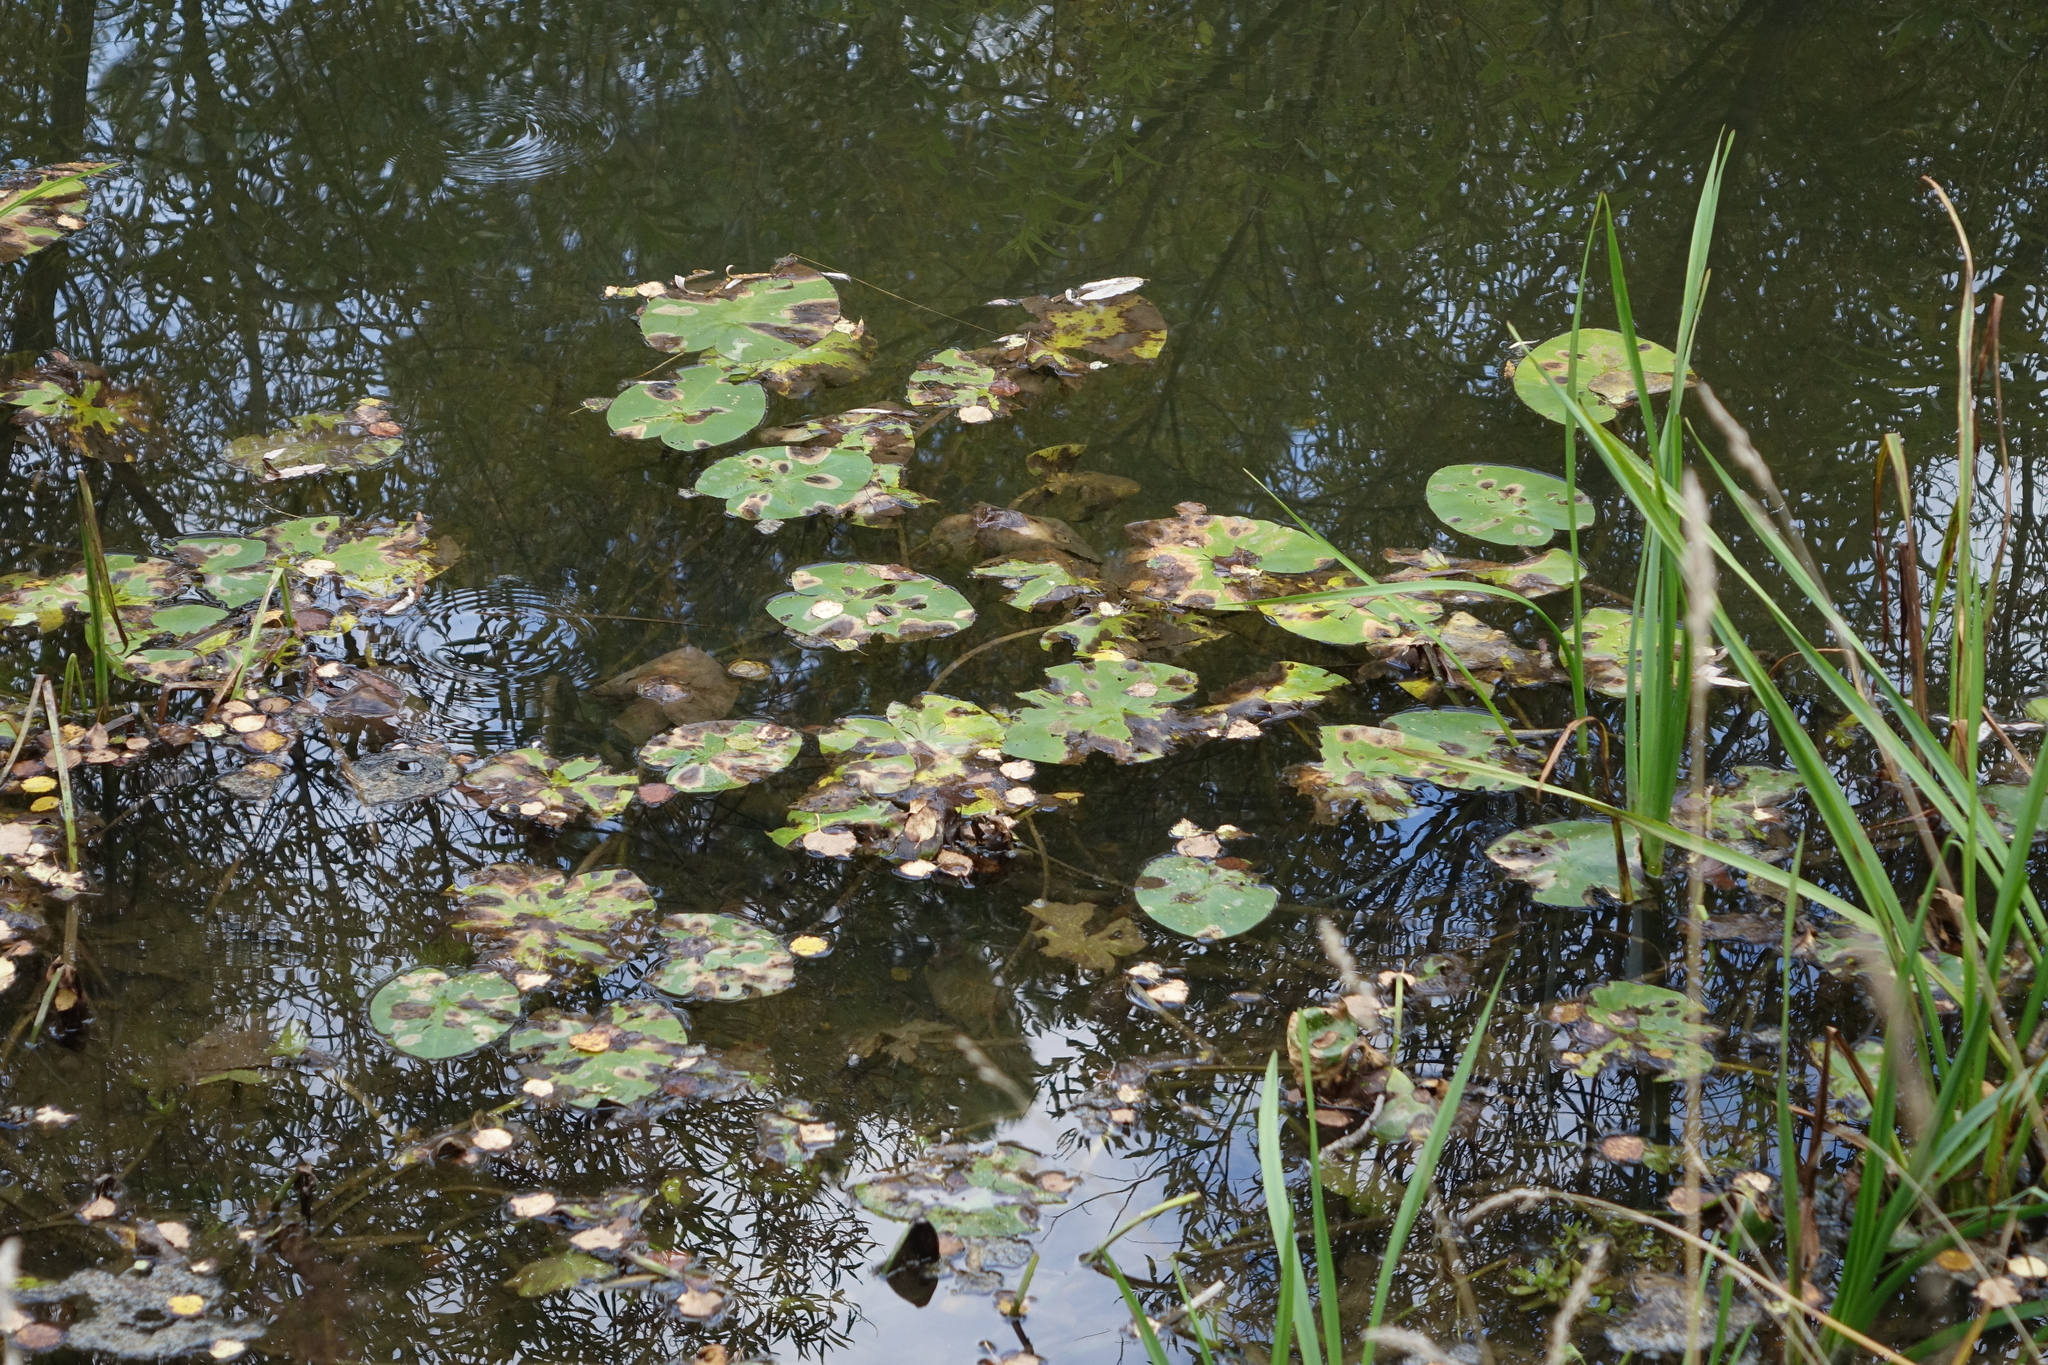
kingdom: Plantae
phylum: Tracheophyta
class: Magnoliopsida
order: Nymphaeales
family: Nymphaeaceae
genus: Nuphar
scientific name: Nuphar lutea
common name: Yellow water-lily
